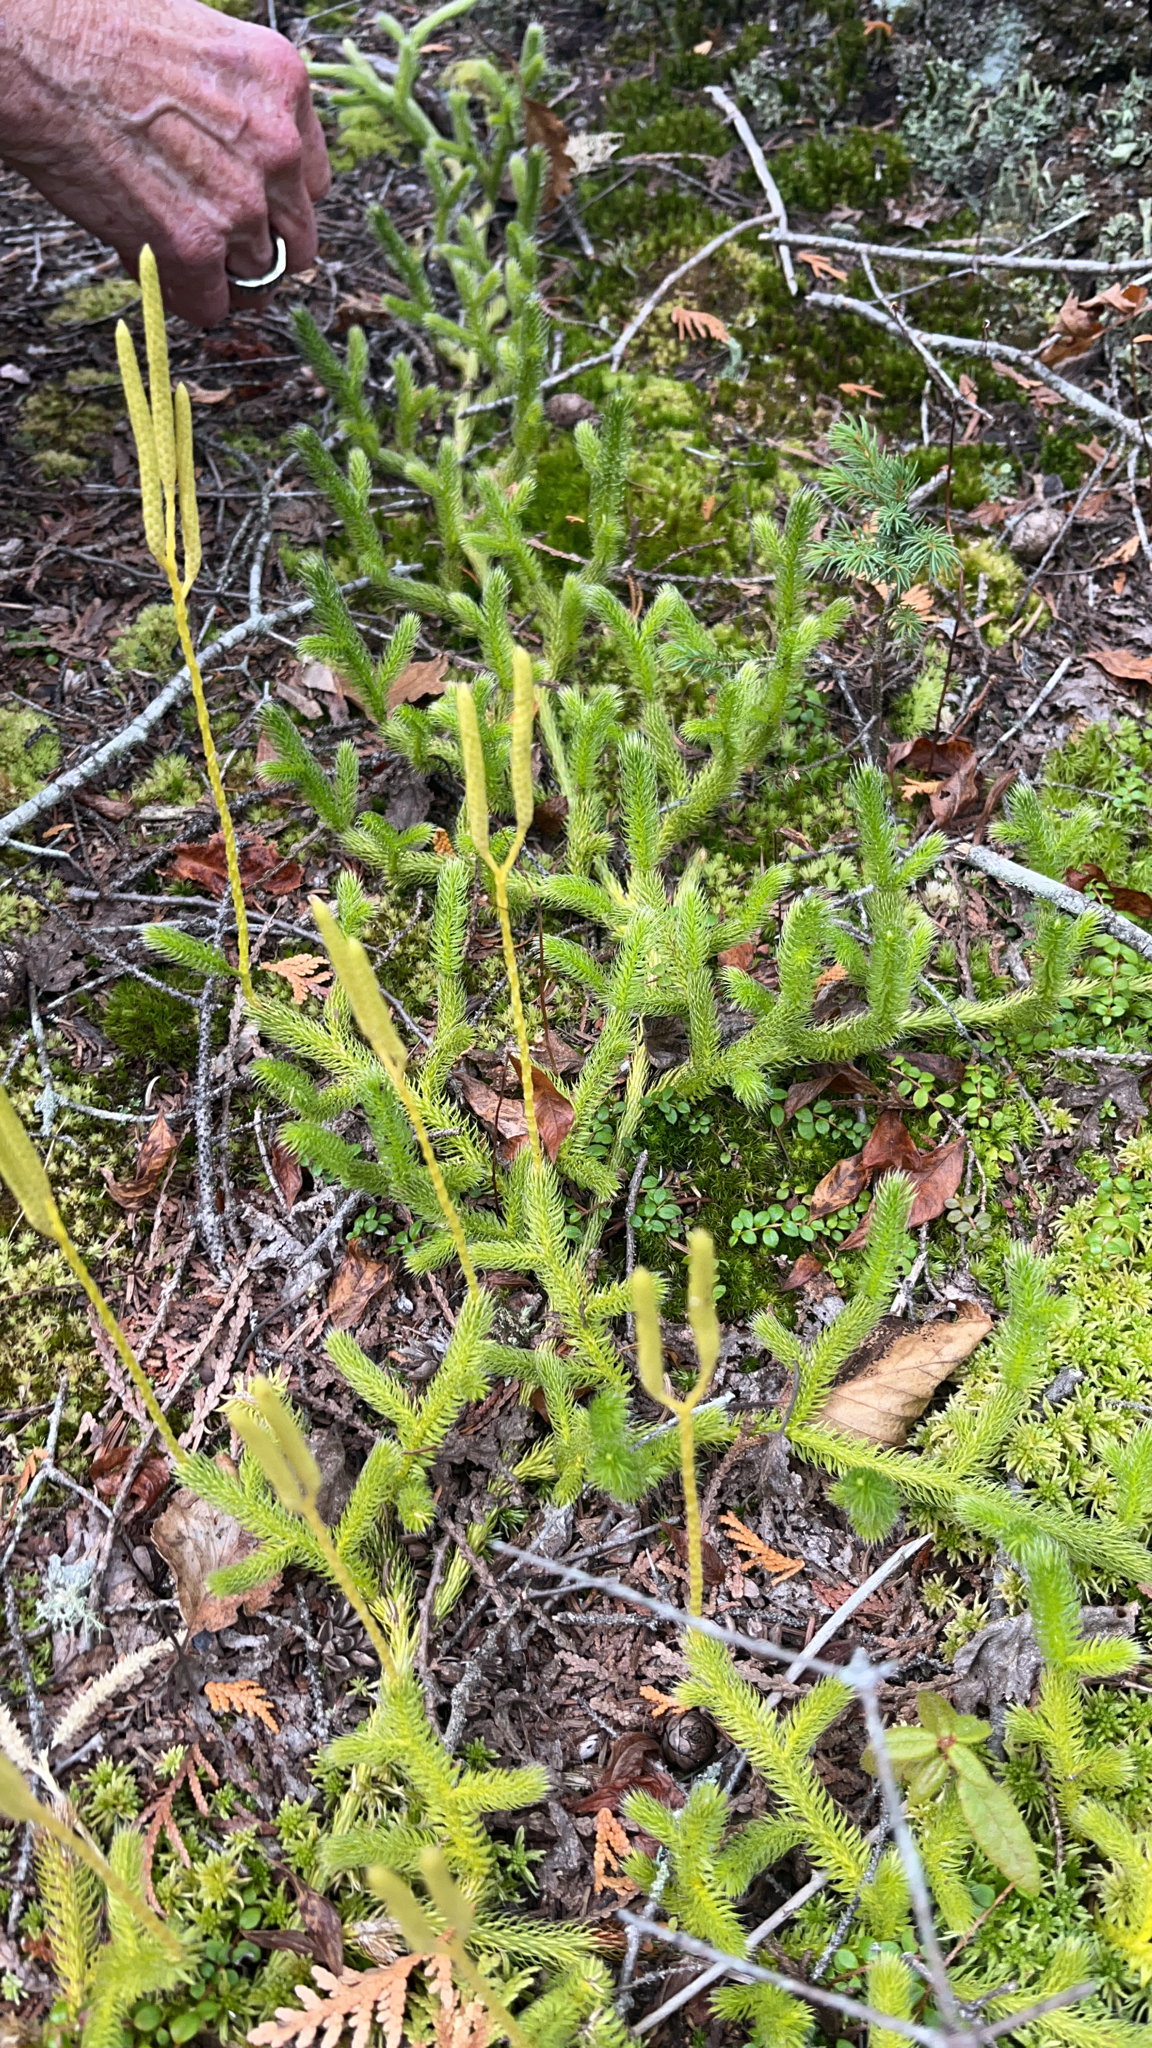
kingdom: Plantae
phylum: Tracheophyta
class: Lycopodiopsida
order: Lycopodiales
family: Lycopodiaceae
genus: Lycopodium
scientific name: Lycopodium clavatum
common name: Stag's-horn clubmoss
